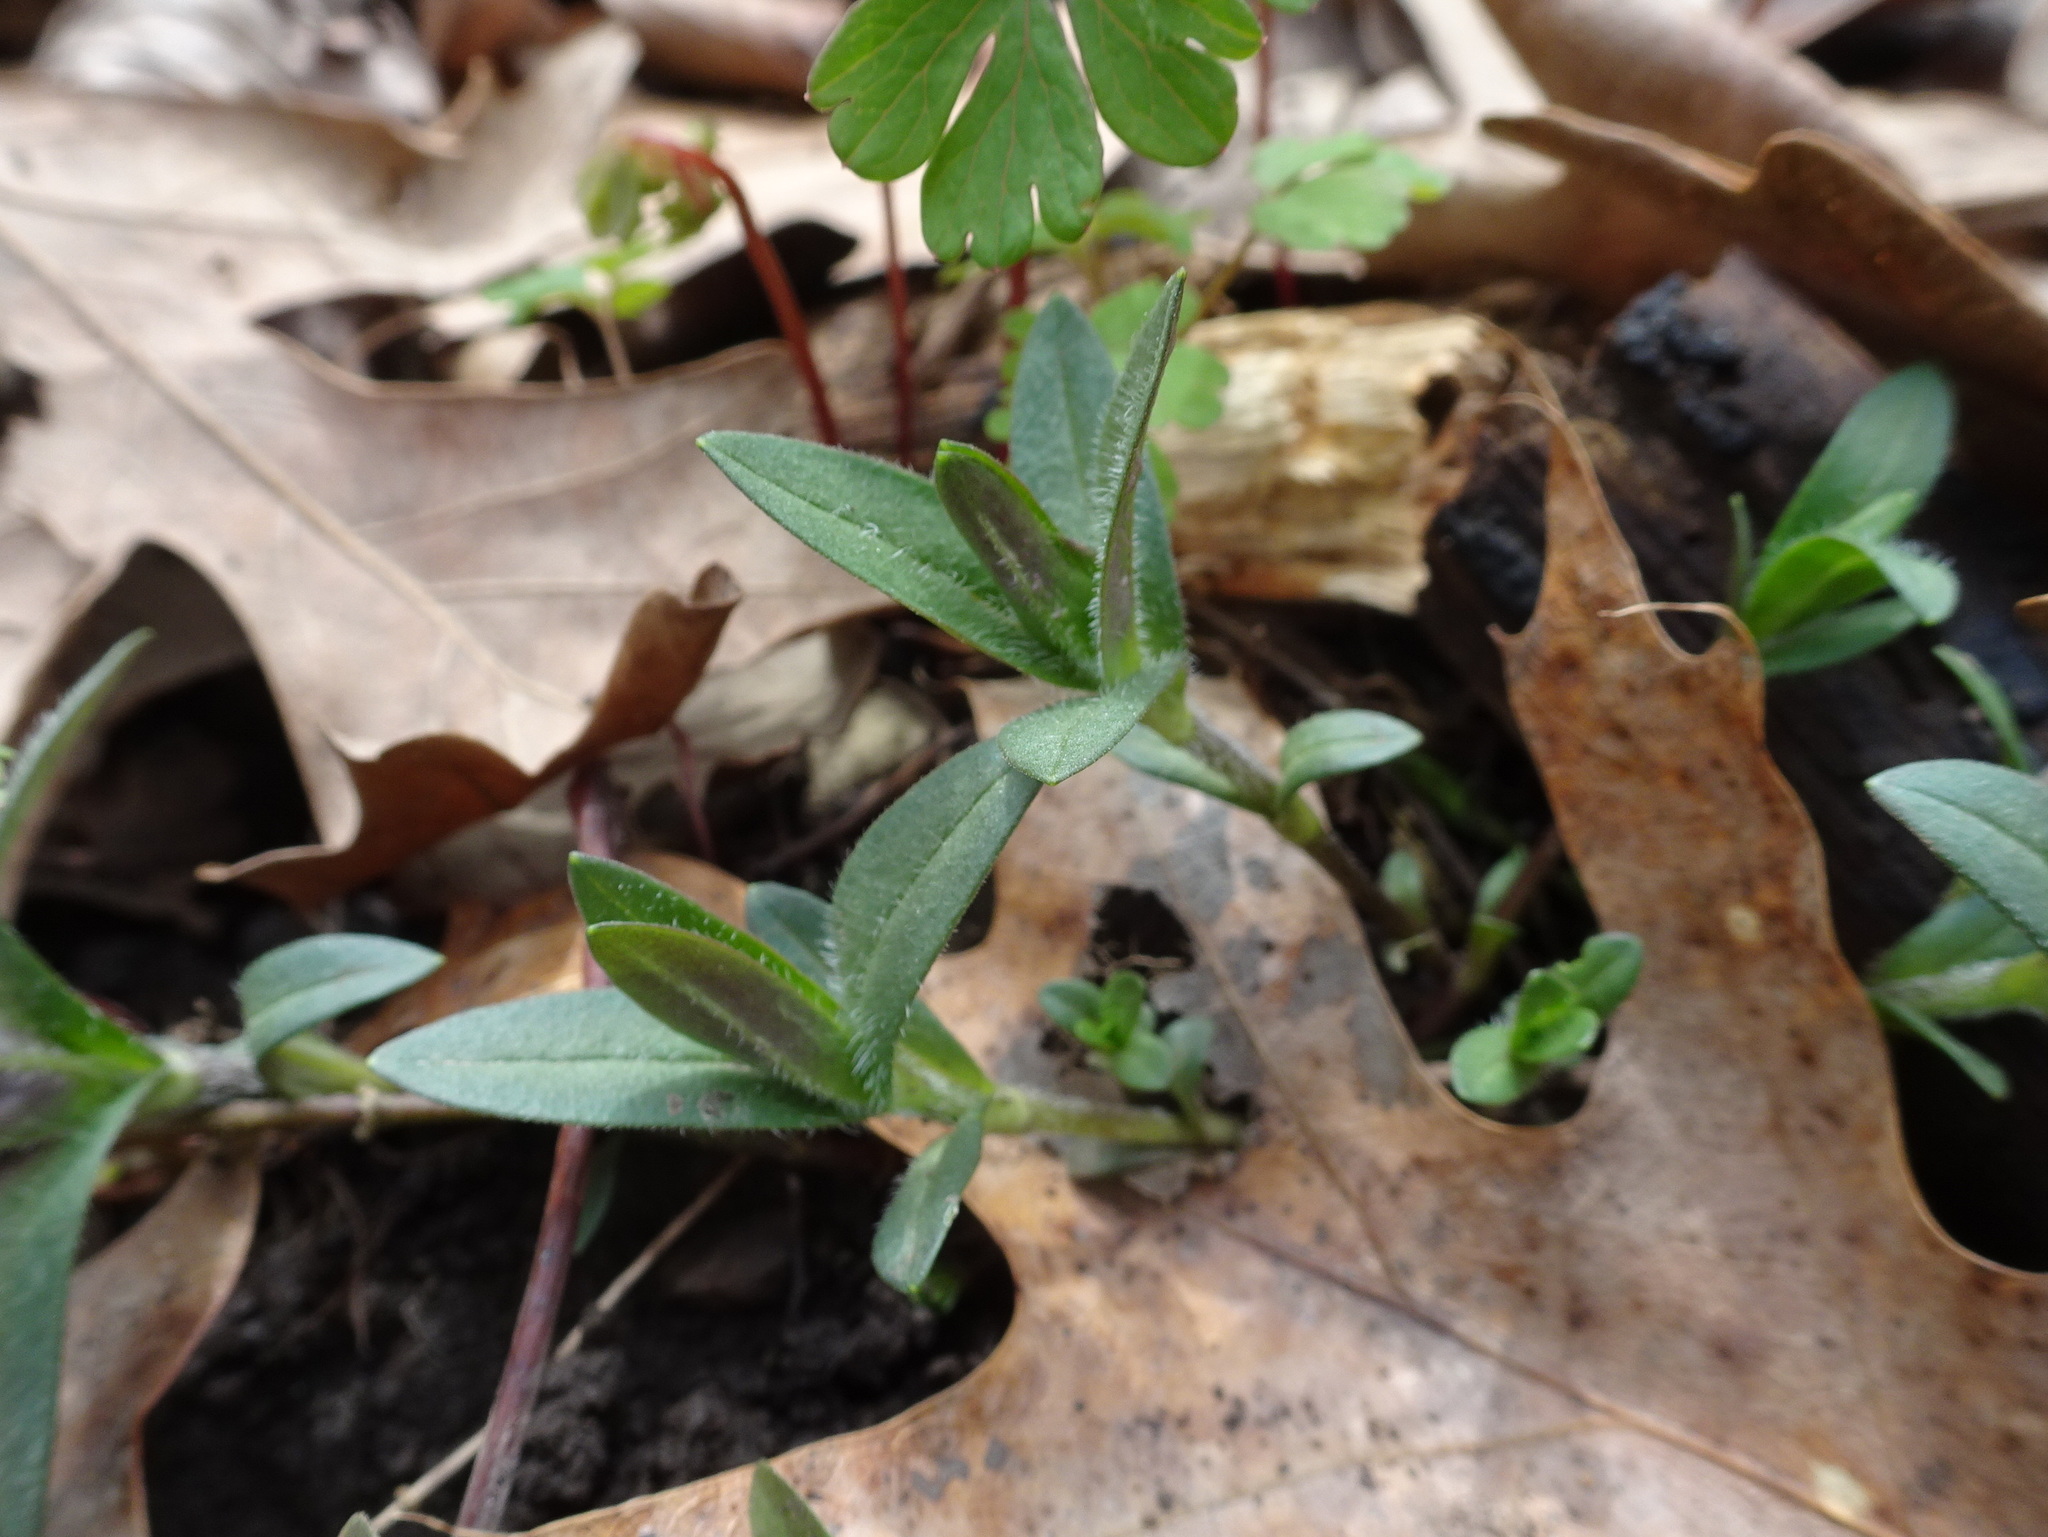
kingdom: Plantae
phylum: Tracheophyta
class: Magnoliopsida
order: Ericales
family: Polemoniaceae
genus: Phlox
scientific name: Phlox divaricata
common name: Blue phlox
